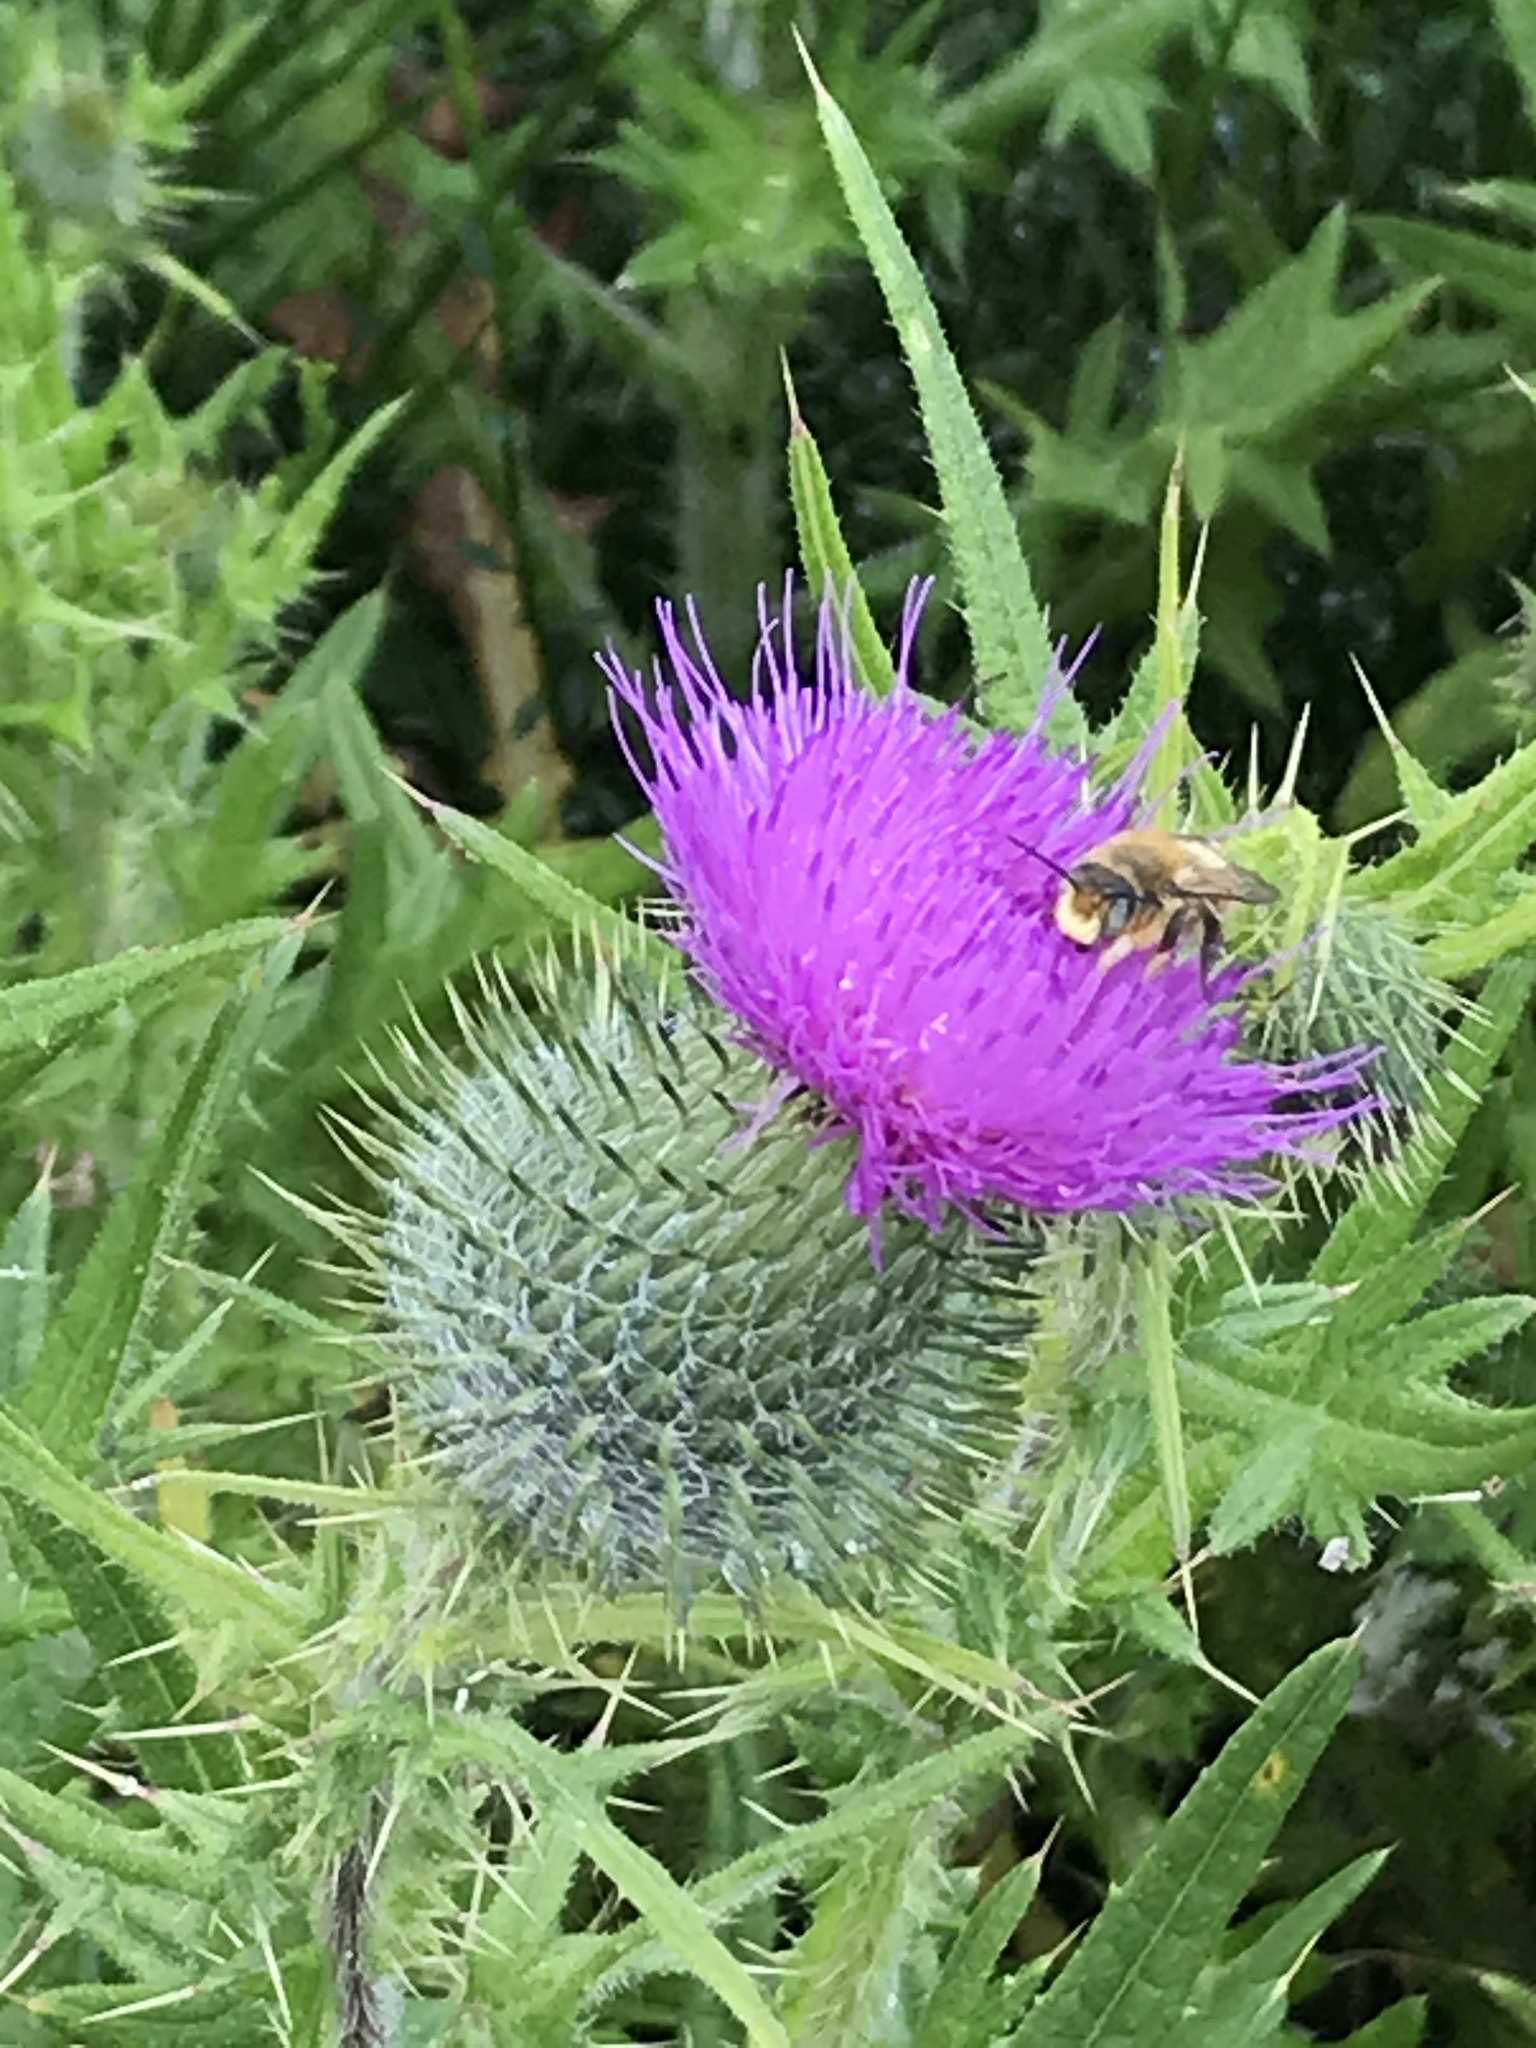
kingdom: Plantae
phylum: Tracheophyta
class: Magnoliopsida
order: Asterales
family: Asteraceae
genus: Cirsium
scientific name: Cirsium vulgare
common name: Bull thistle
